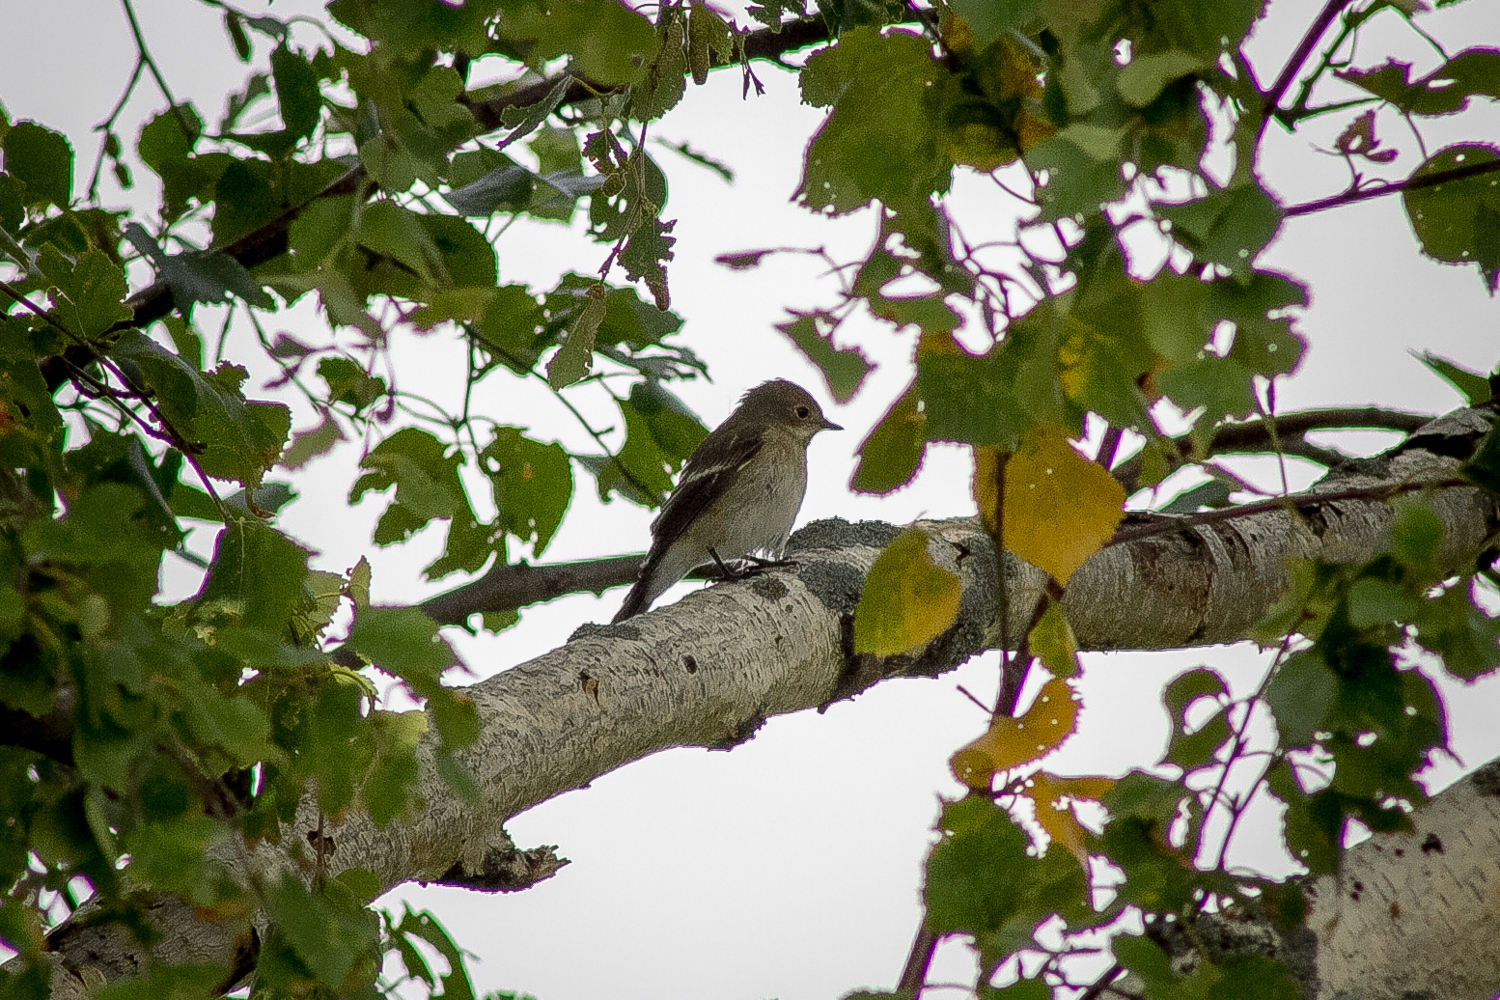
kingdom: Animalia
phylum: Chordata
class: Aves
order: Passeriformes
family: Muscicapidae
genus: Ficedula
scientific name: Ficedula hypoleuca
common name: European pied flycatcher
